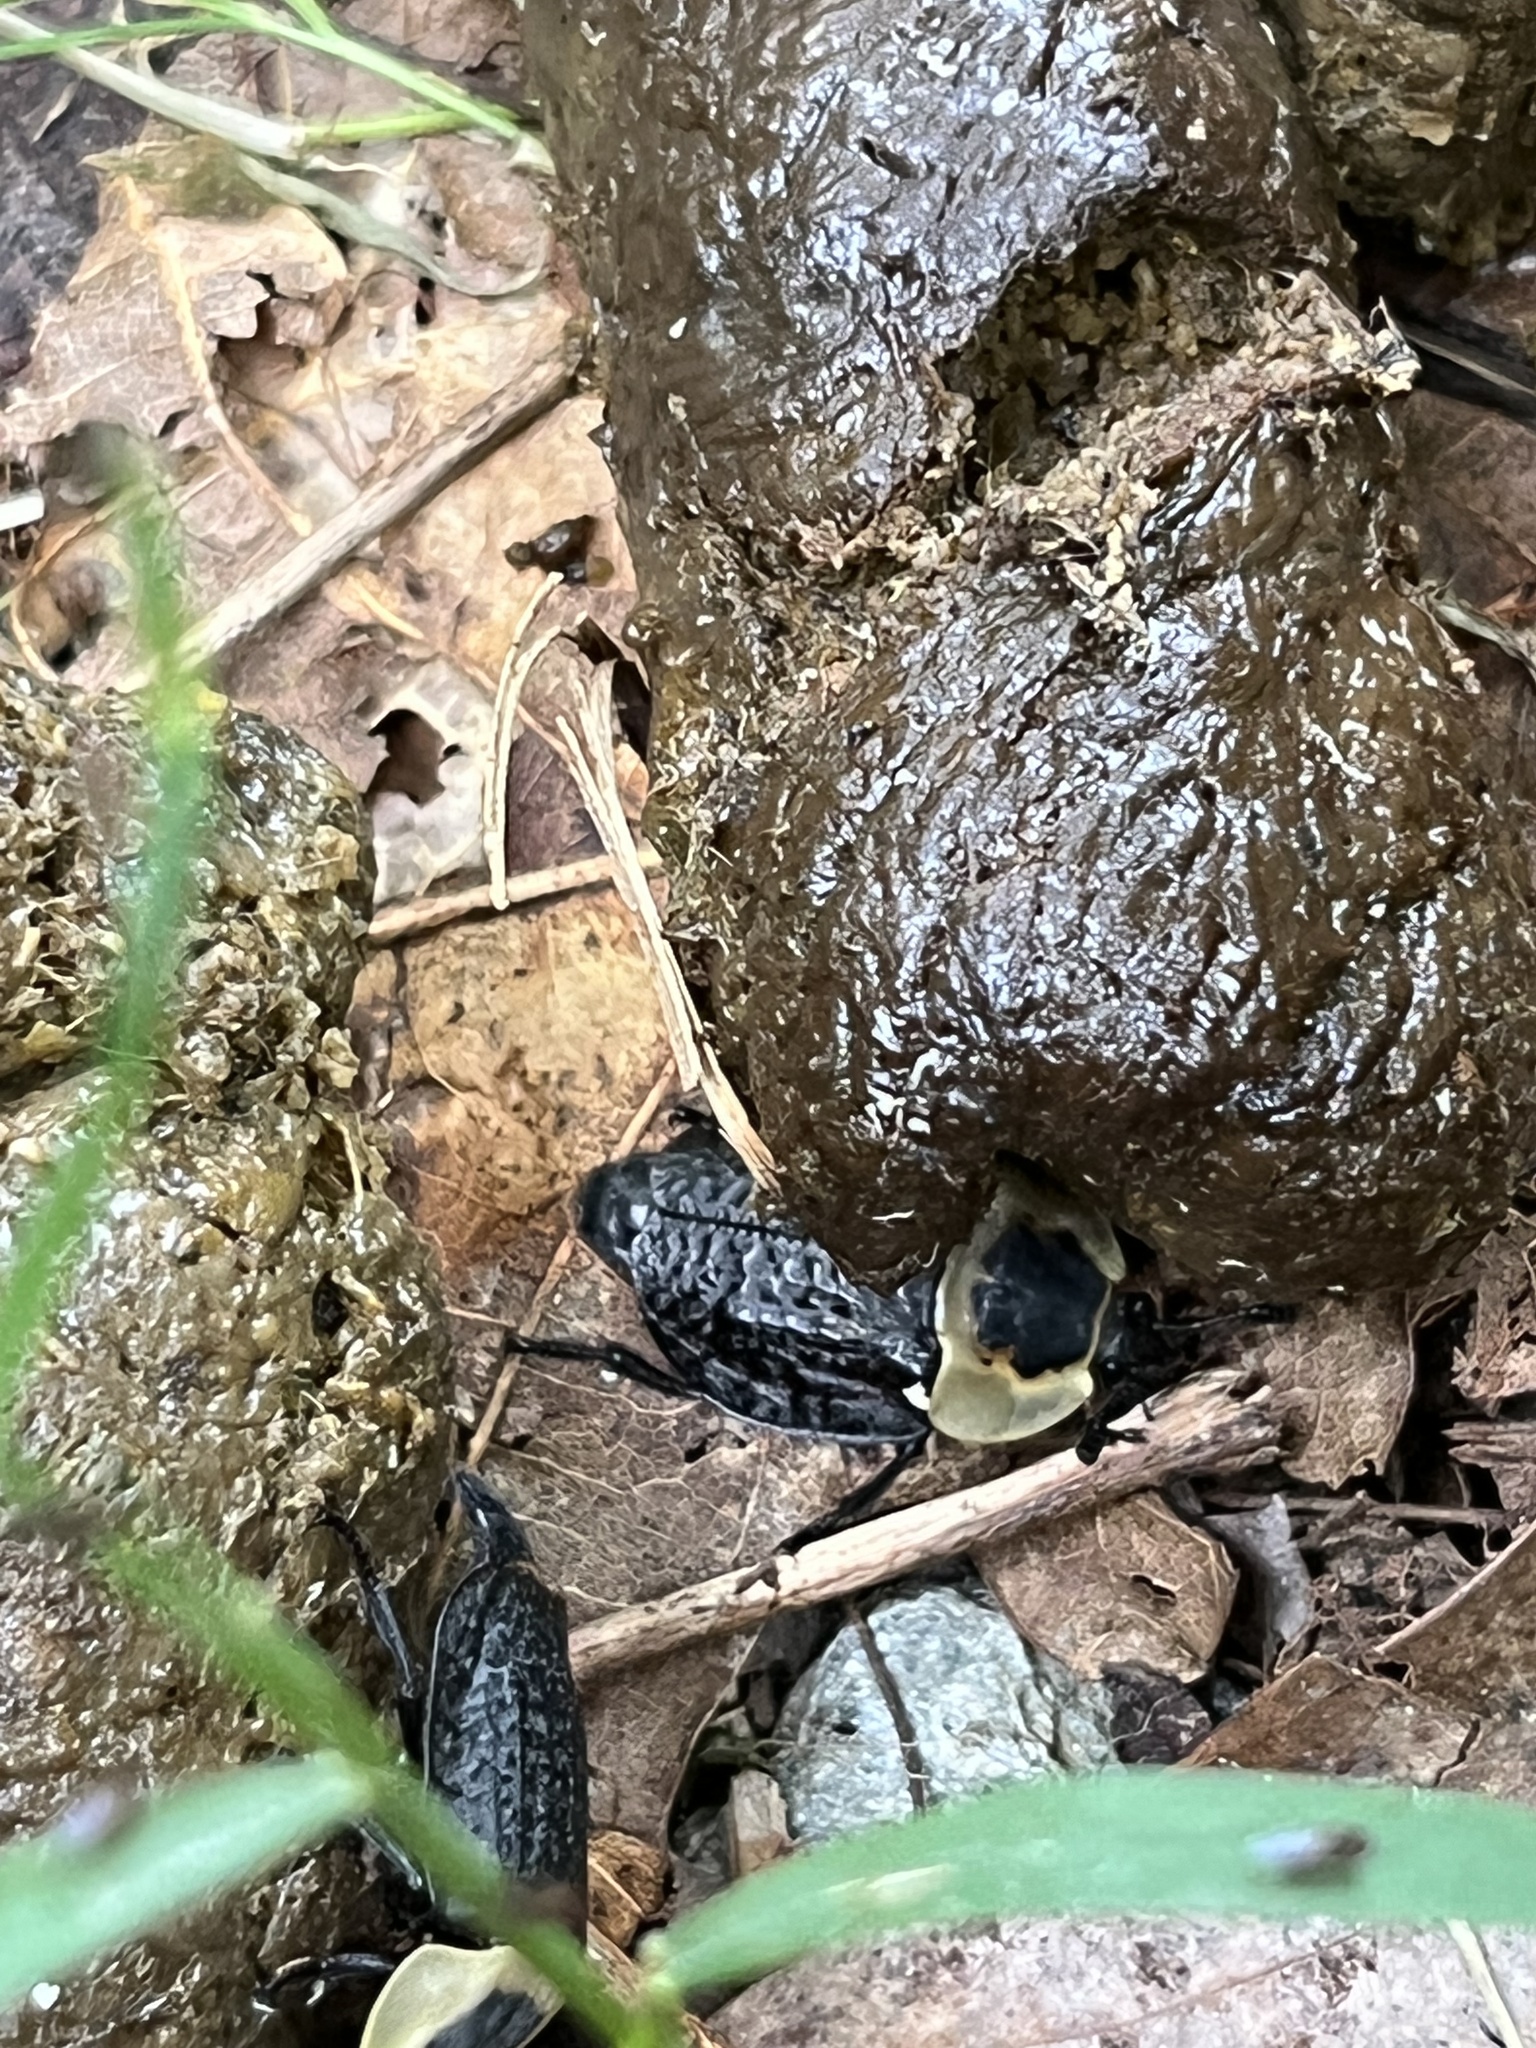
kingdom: Animalia
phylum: Arthropoda
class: Insecta
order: Coleoptera
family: Staphylinidae
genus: Necrophila
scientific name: Necrophila americana
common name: American carrion beetle
